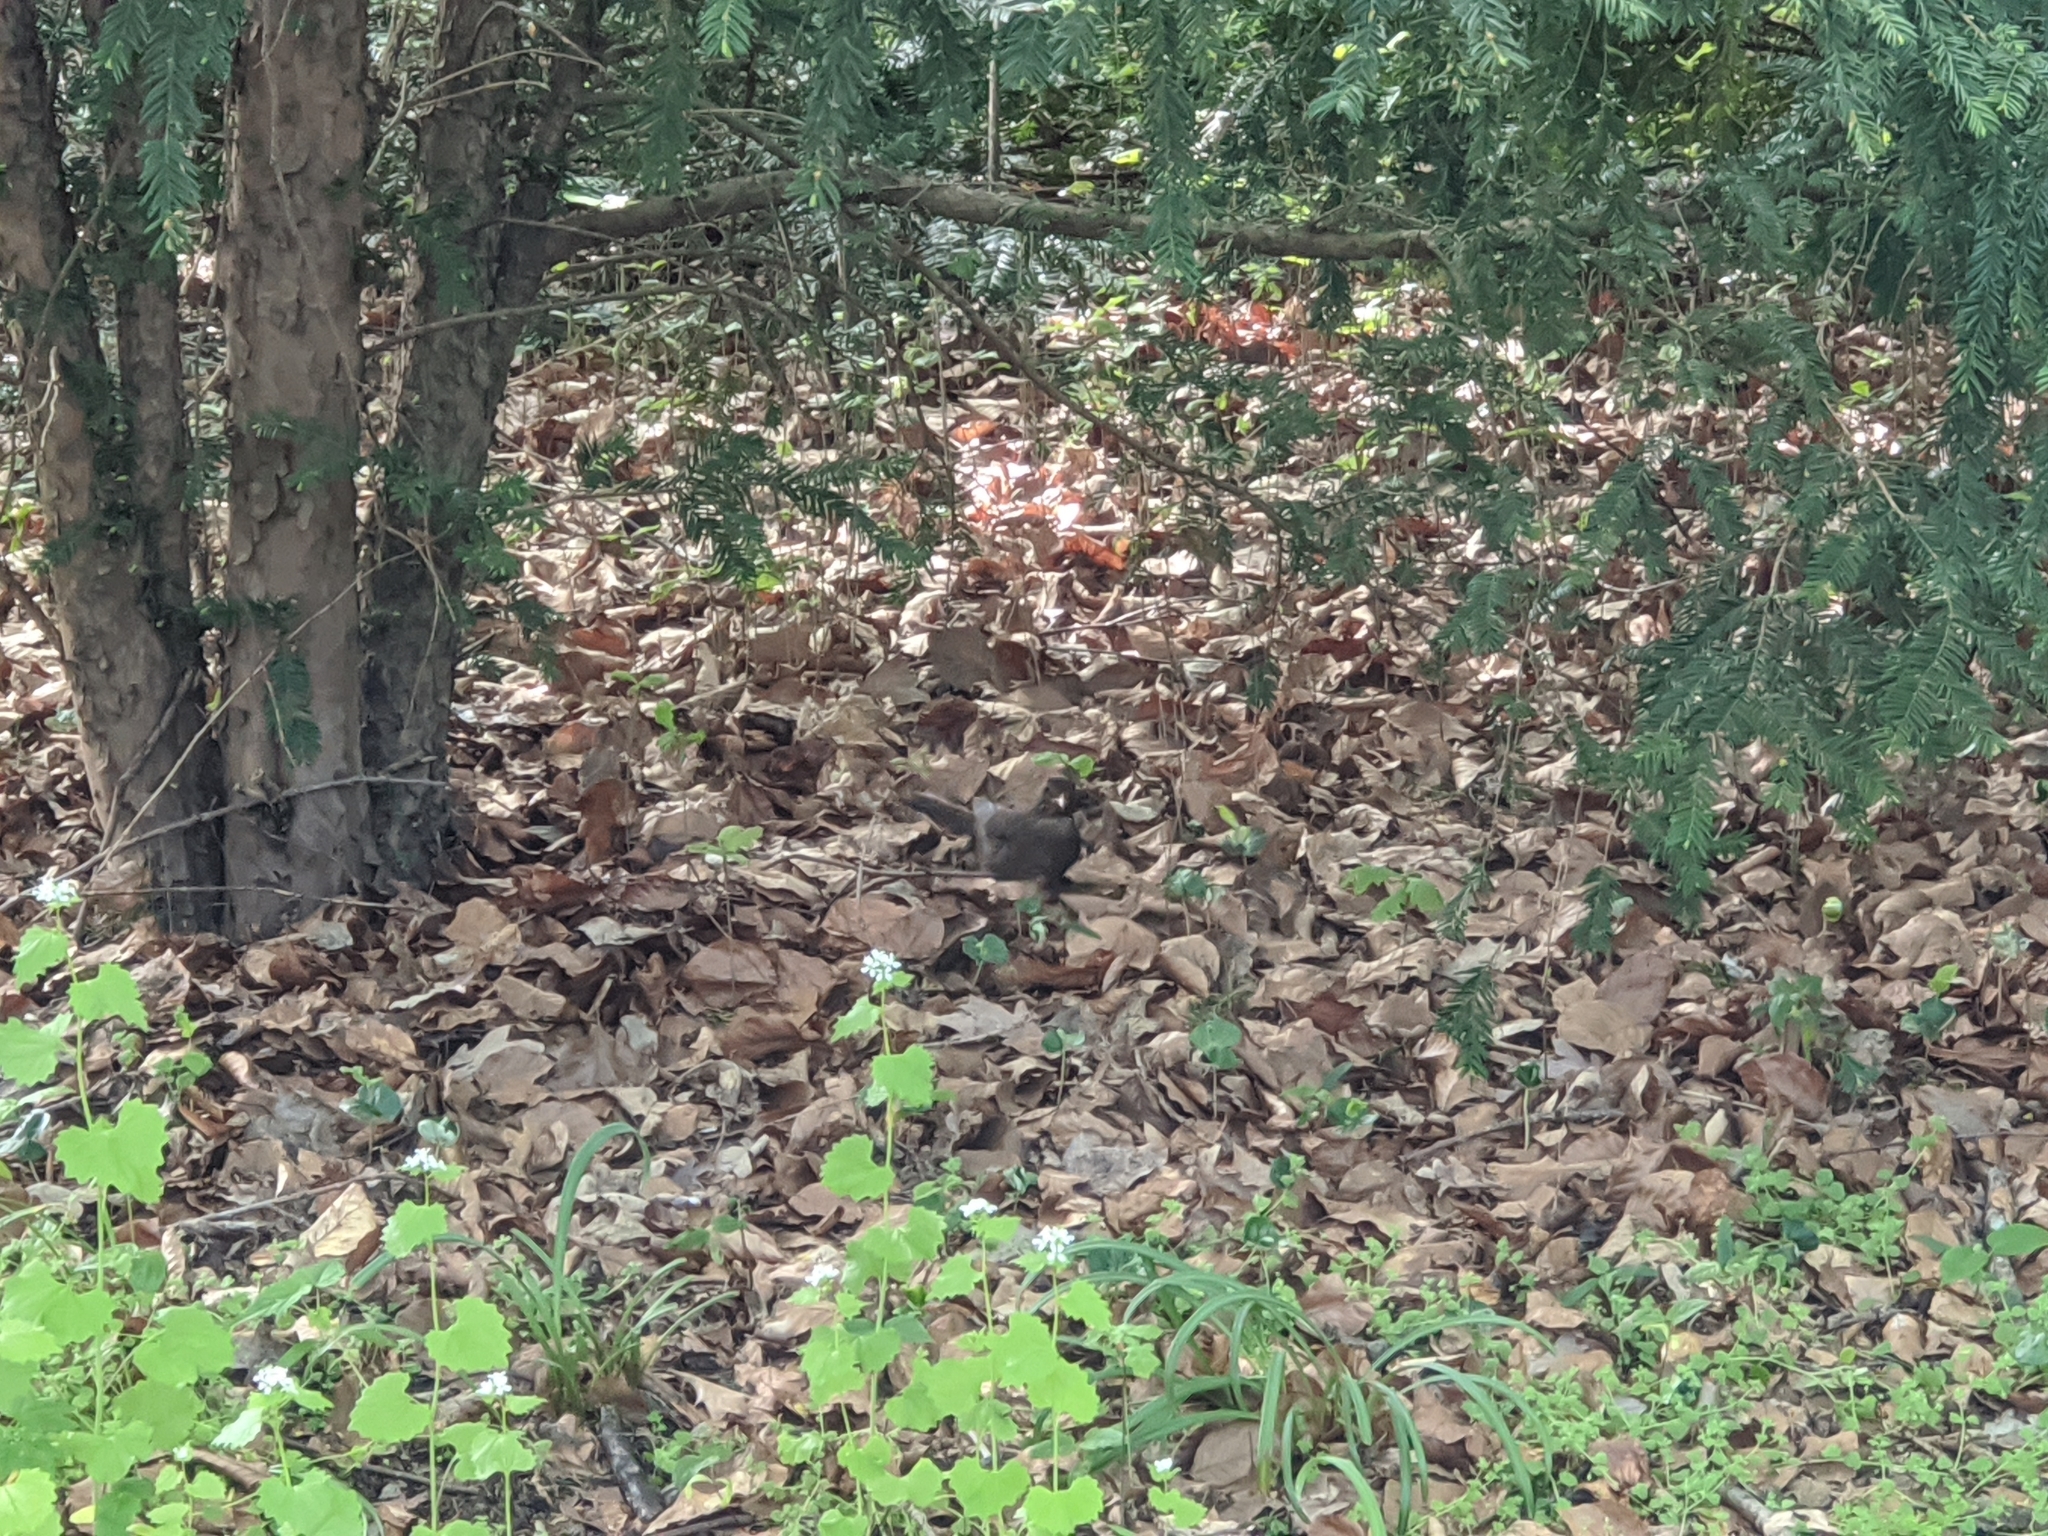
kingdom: Animalia
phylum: Chordata
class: Aves
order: Passeriformes
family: Turdidae
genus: Turdus
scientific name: Turdus merula
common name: Common blackbird
